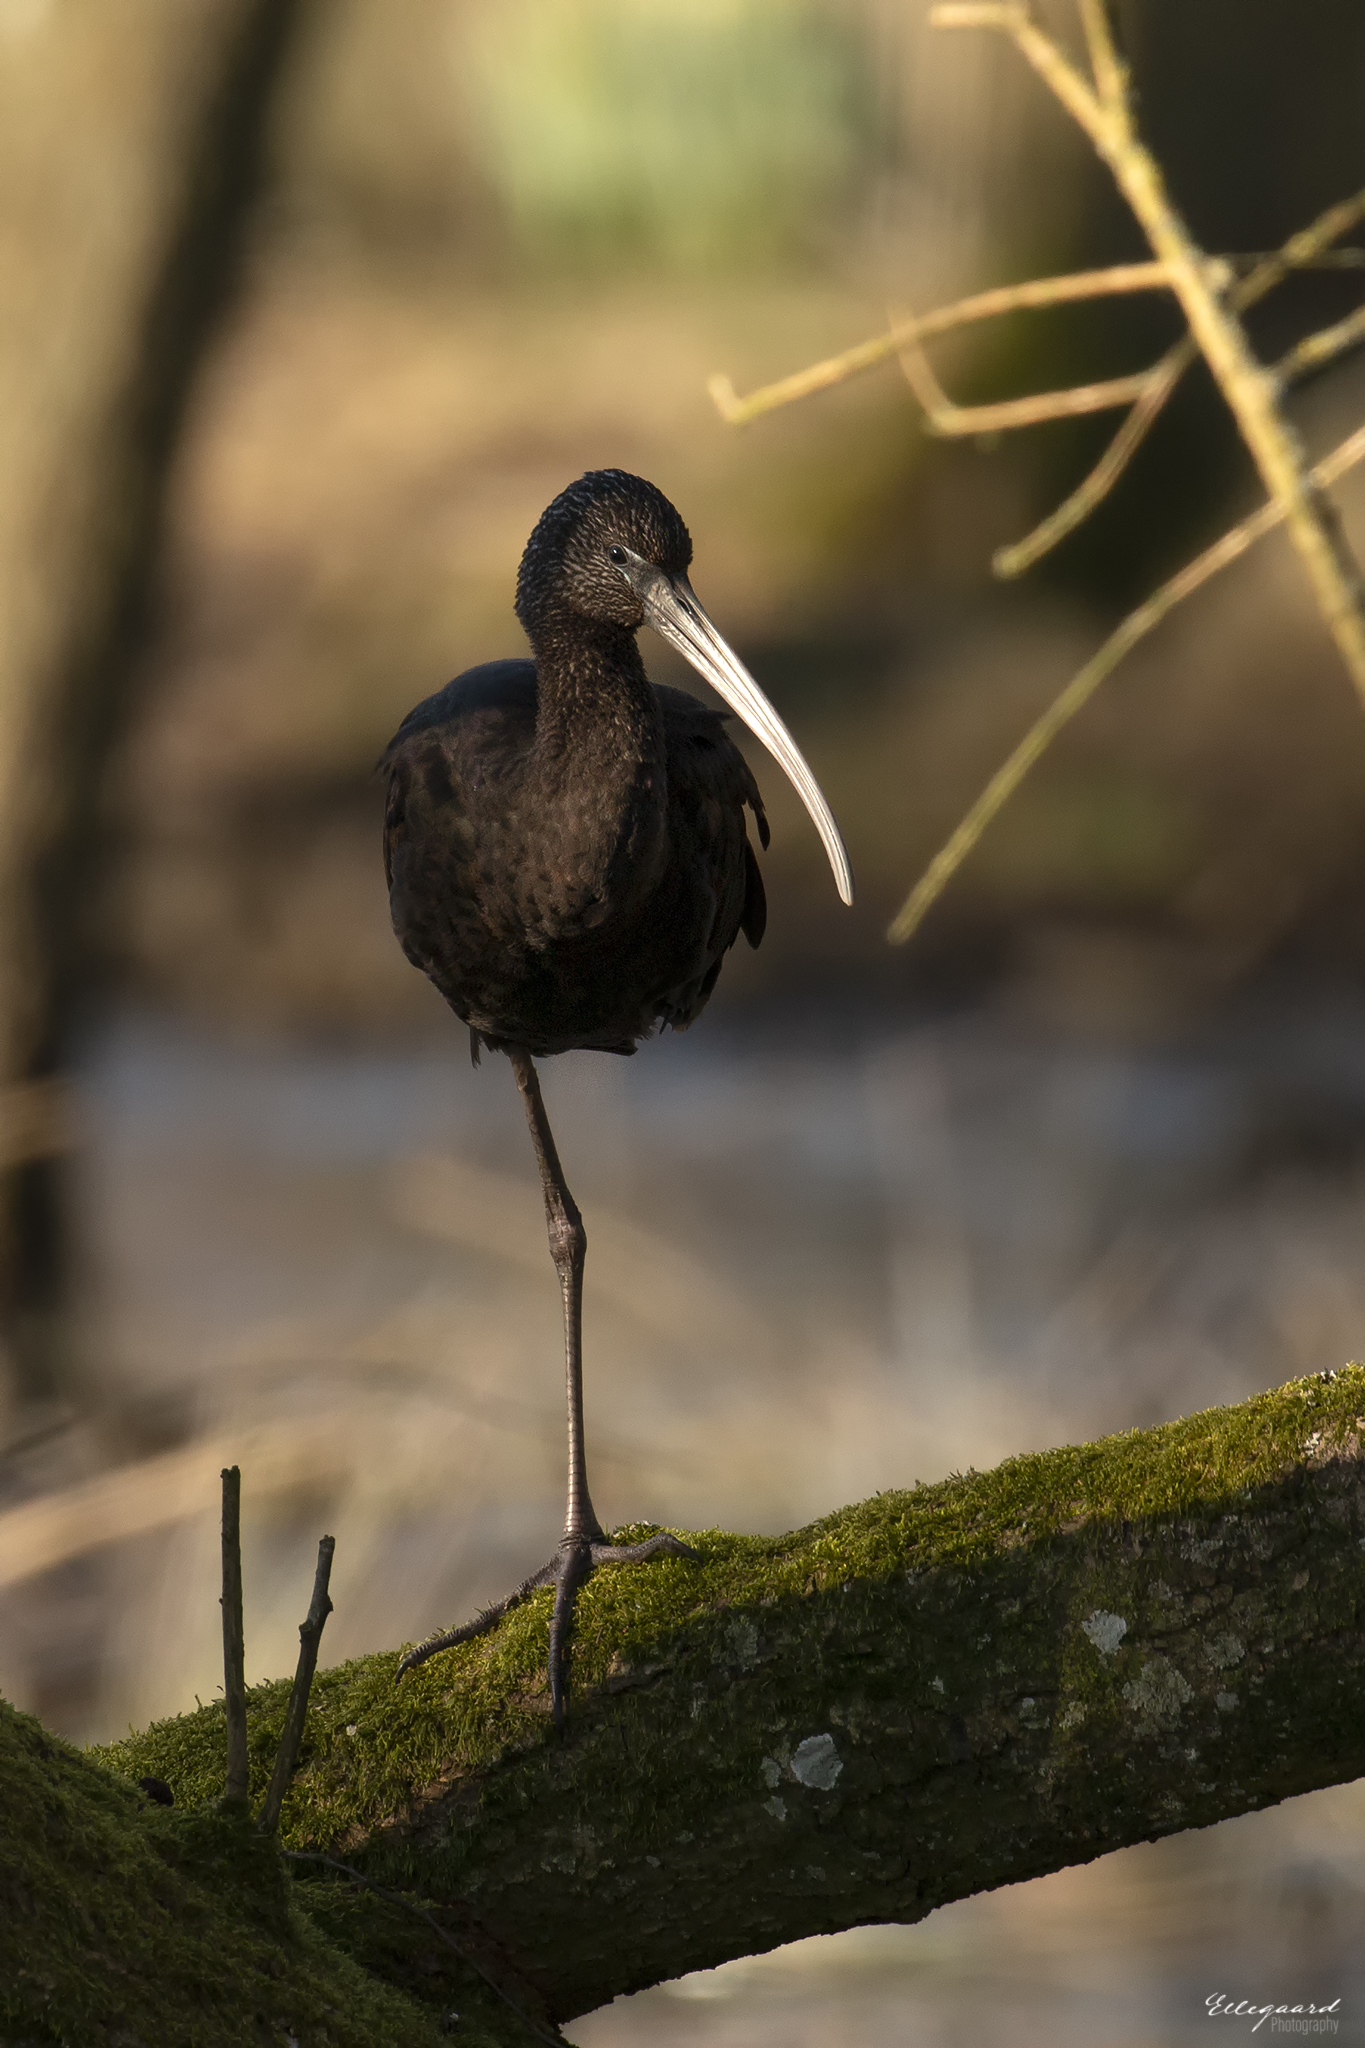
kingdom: Animalia
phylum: Chordata
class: Aves
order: Pelecaniformes
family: Threskiornithidae
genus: Plegadis
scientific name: Plegadis falcinellus
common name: Glossy ibis
